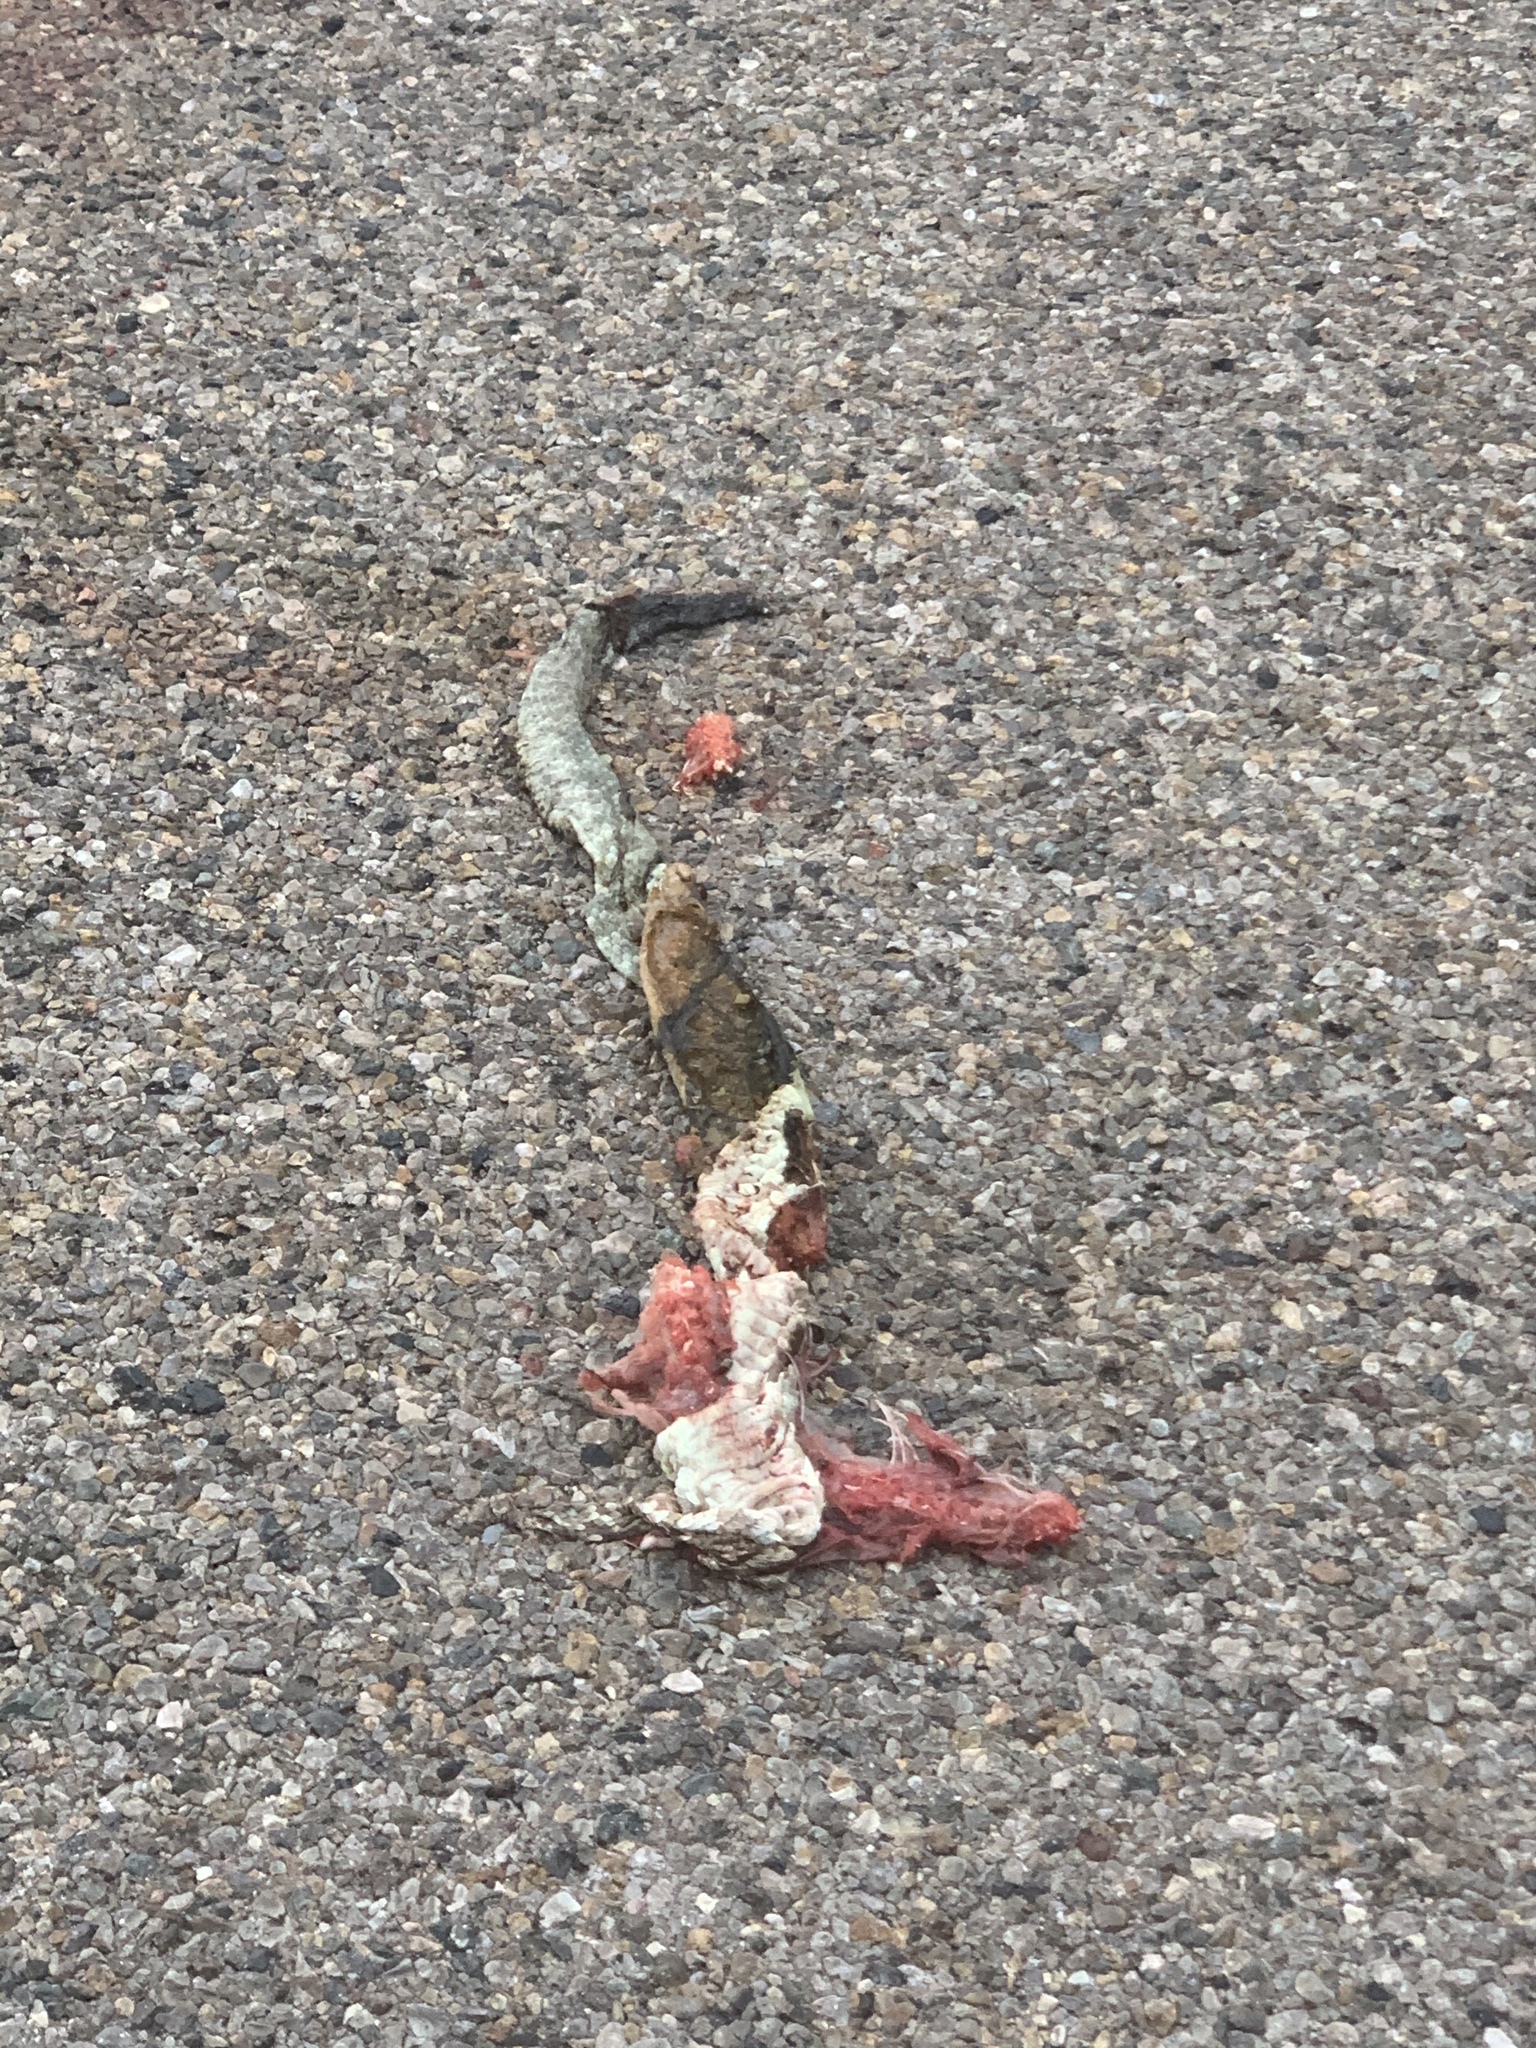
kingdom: Animalia
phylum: Chordata
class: Squamata
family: Viperidae
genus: Crotalus
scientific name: Crotalus ornatus
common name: Black-tailed rattlesnake
